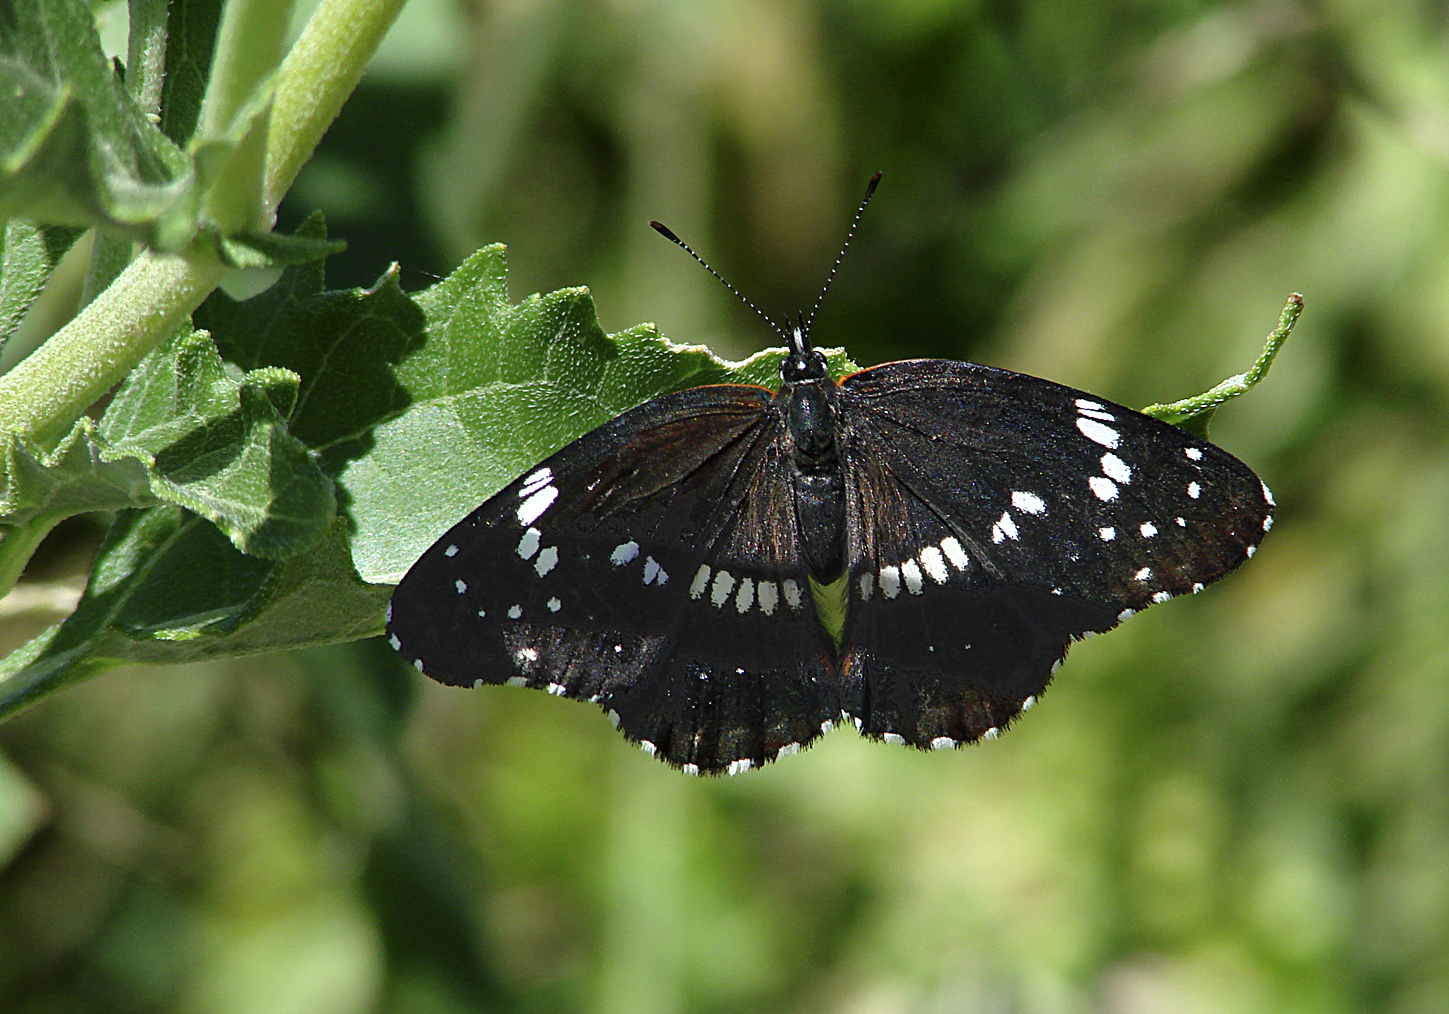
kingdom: Animalia
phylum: Arthropoda
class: Insecta
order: Lepidoptera
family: Nymphalidae
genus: Chlosyne
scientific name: Chlosyne lacinia
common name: Bordered patch
